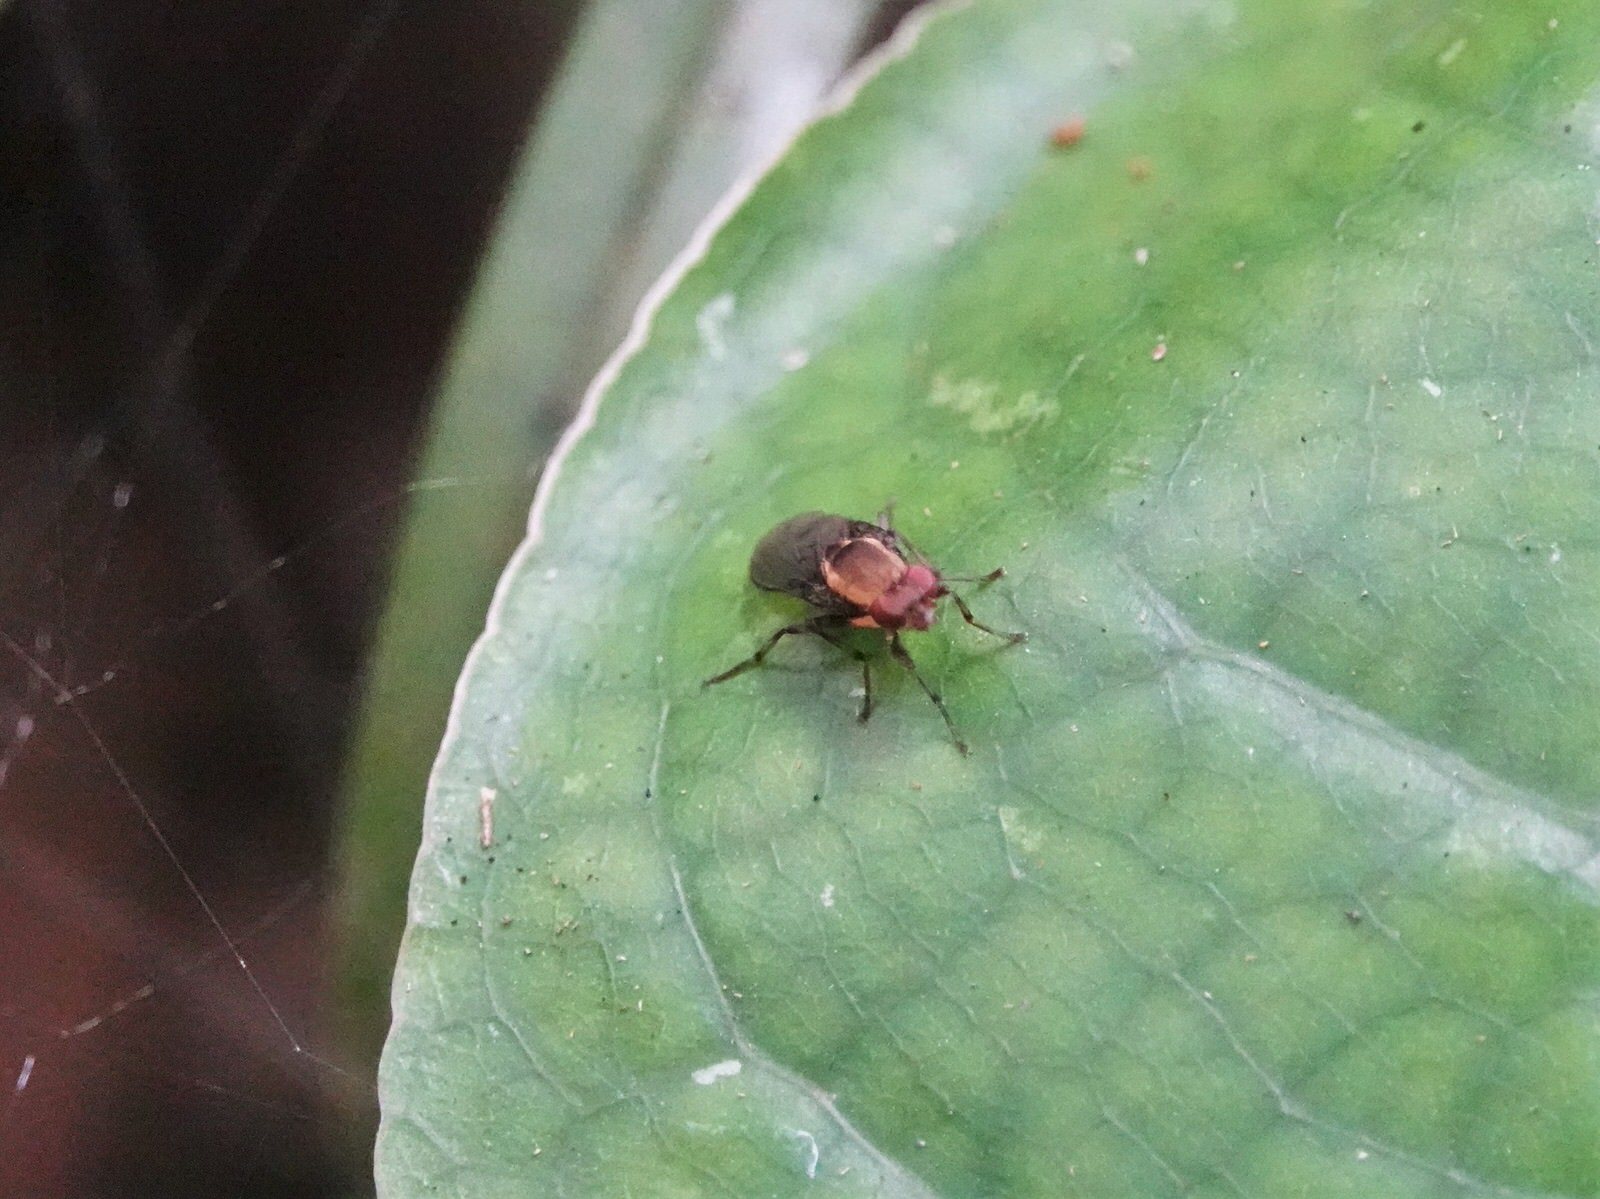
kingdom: Animalia
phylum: Arthropoda
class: Insecta
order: Diptera
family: Heleomyzidae
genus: Allophylopsis
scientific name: Allophylopsis scutellata
